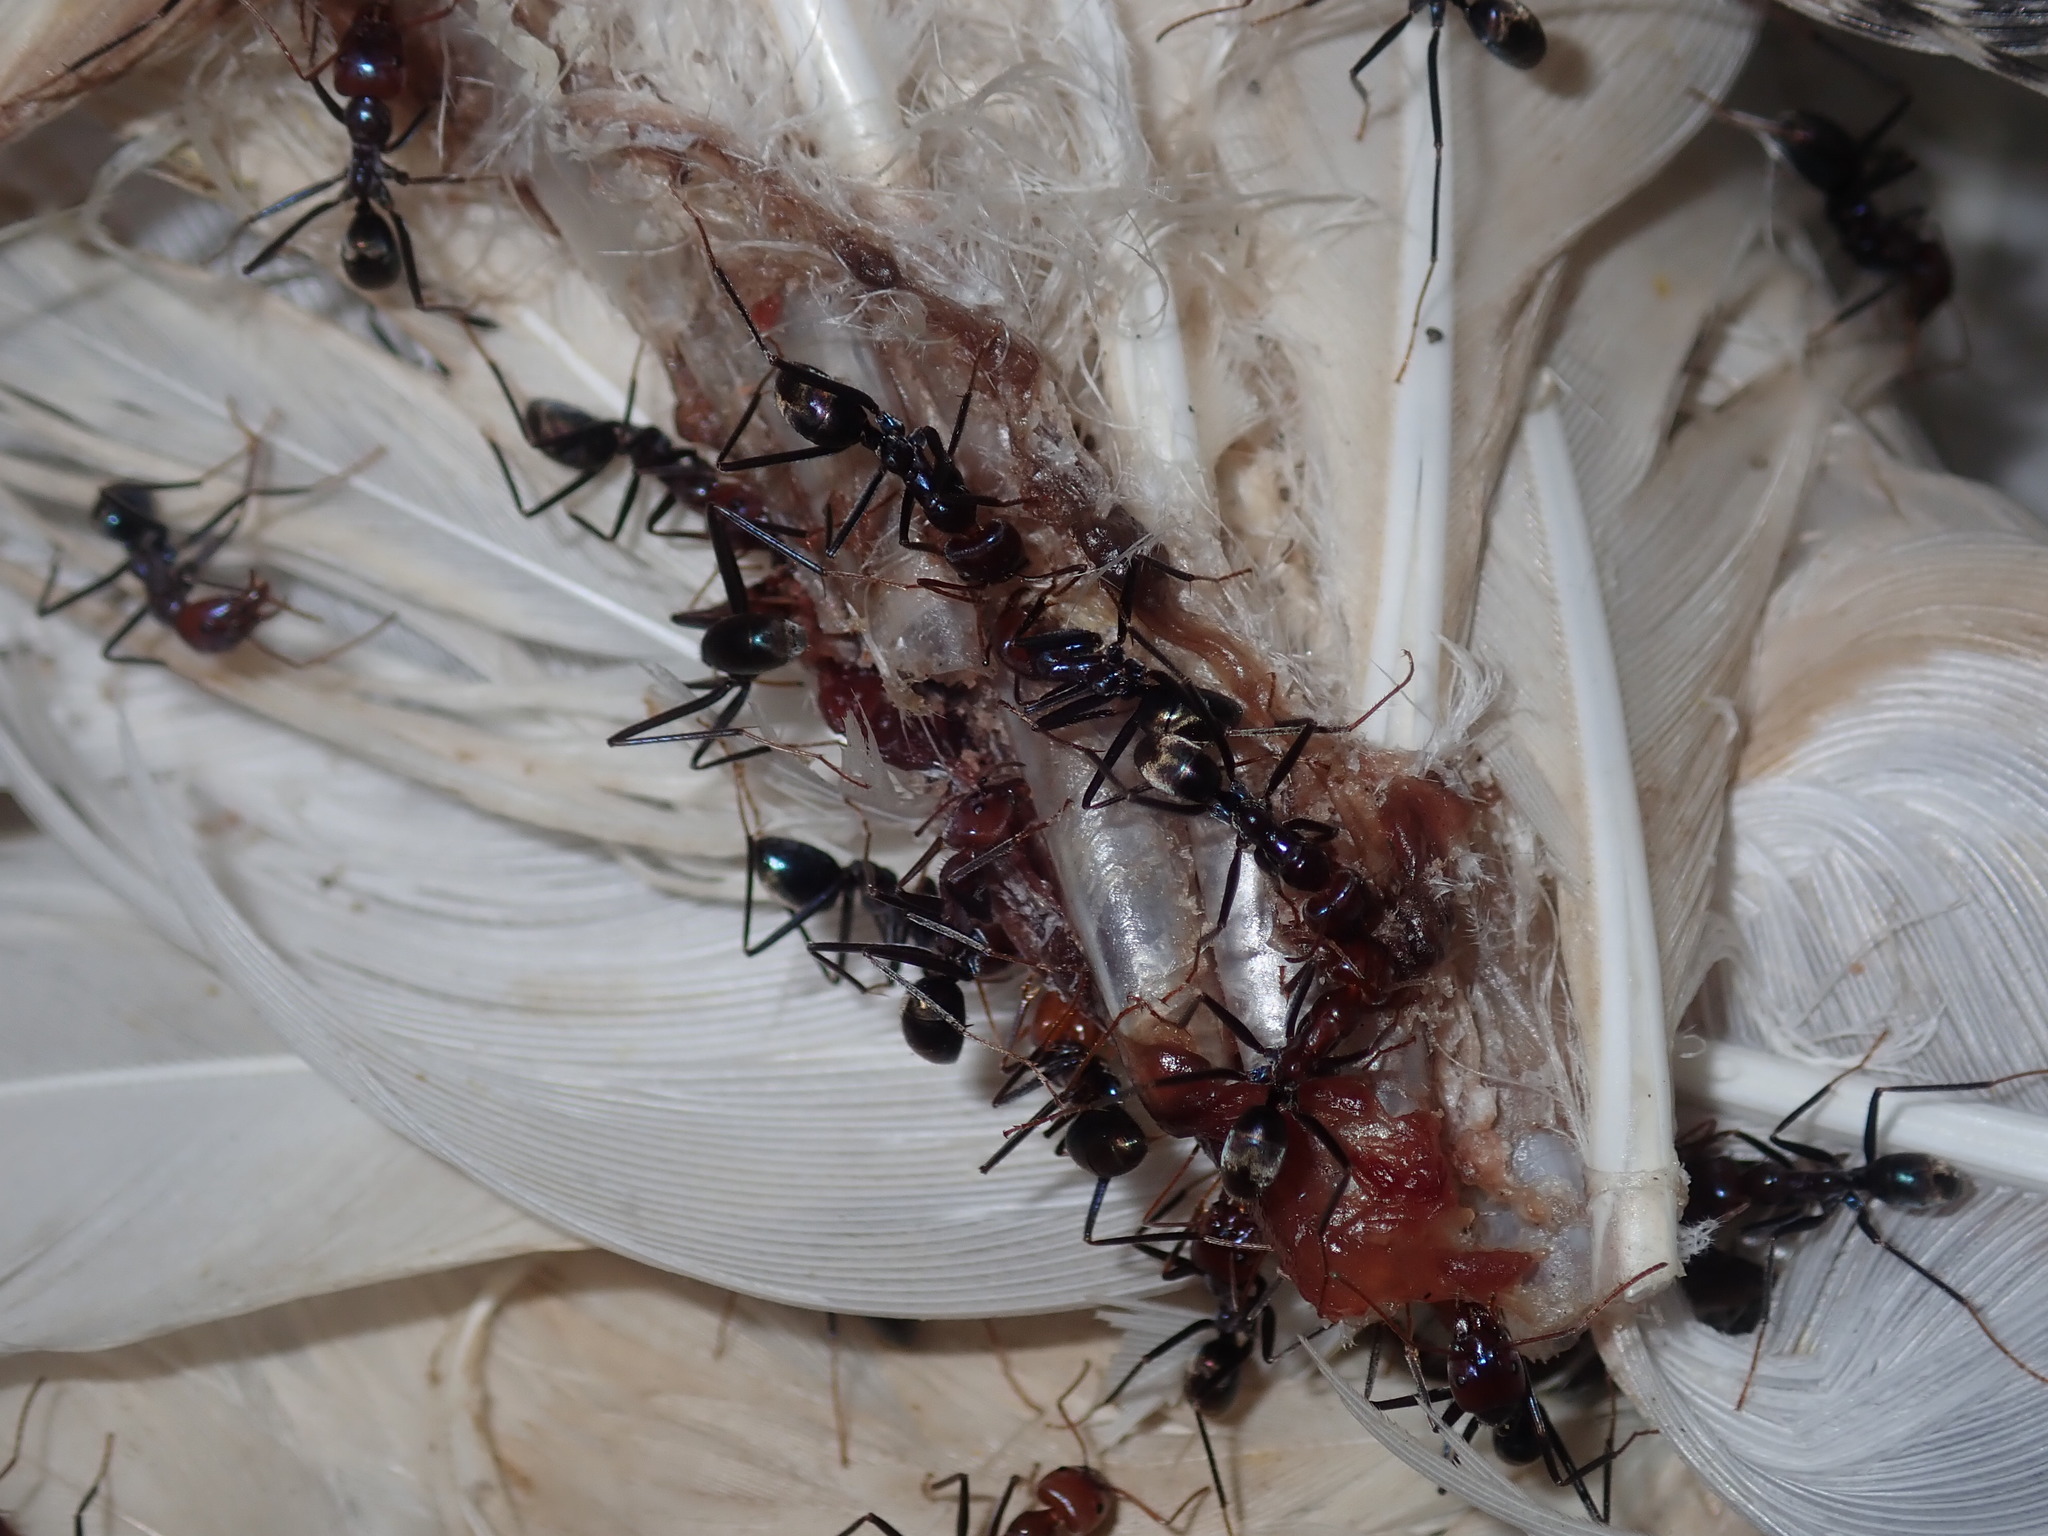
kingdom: Animalia
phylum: Arthropoda
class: Insecta
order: Hymenoptera
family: Formicidae
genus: Iridomyrmex
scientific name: Iridomyrmex purpureus
